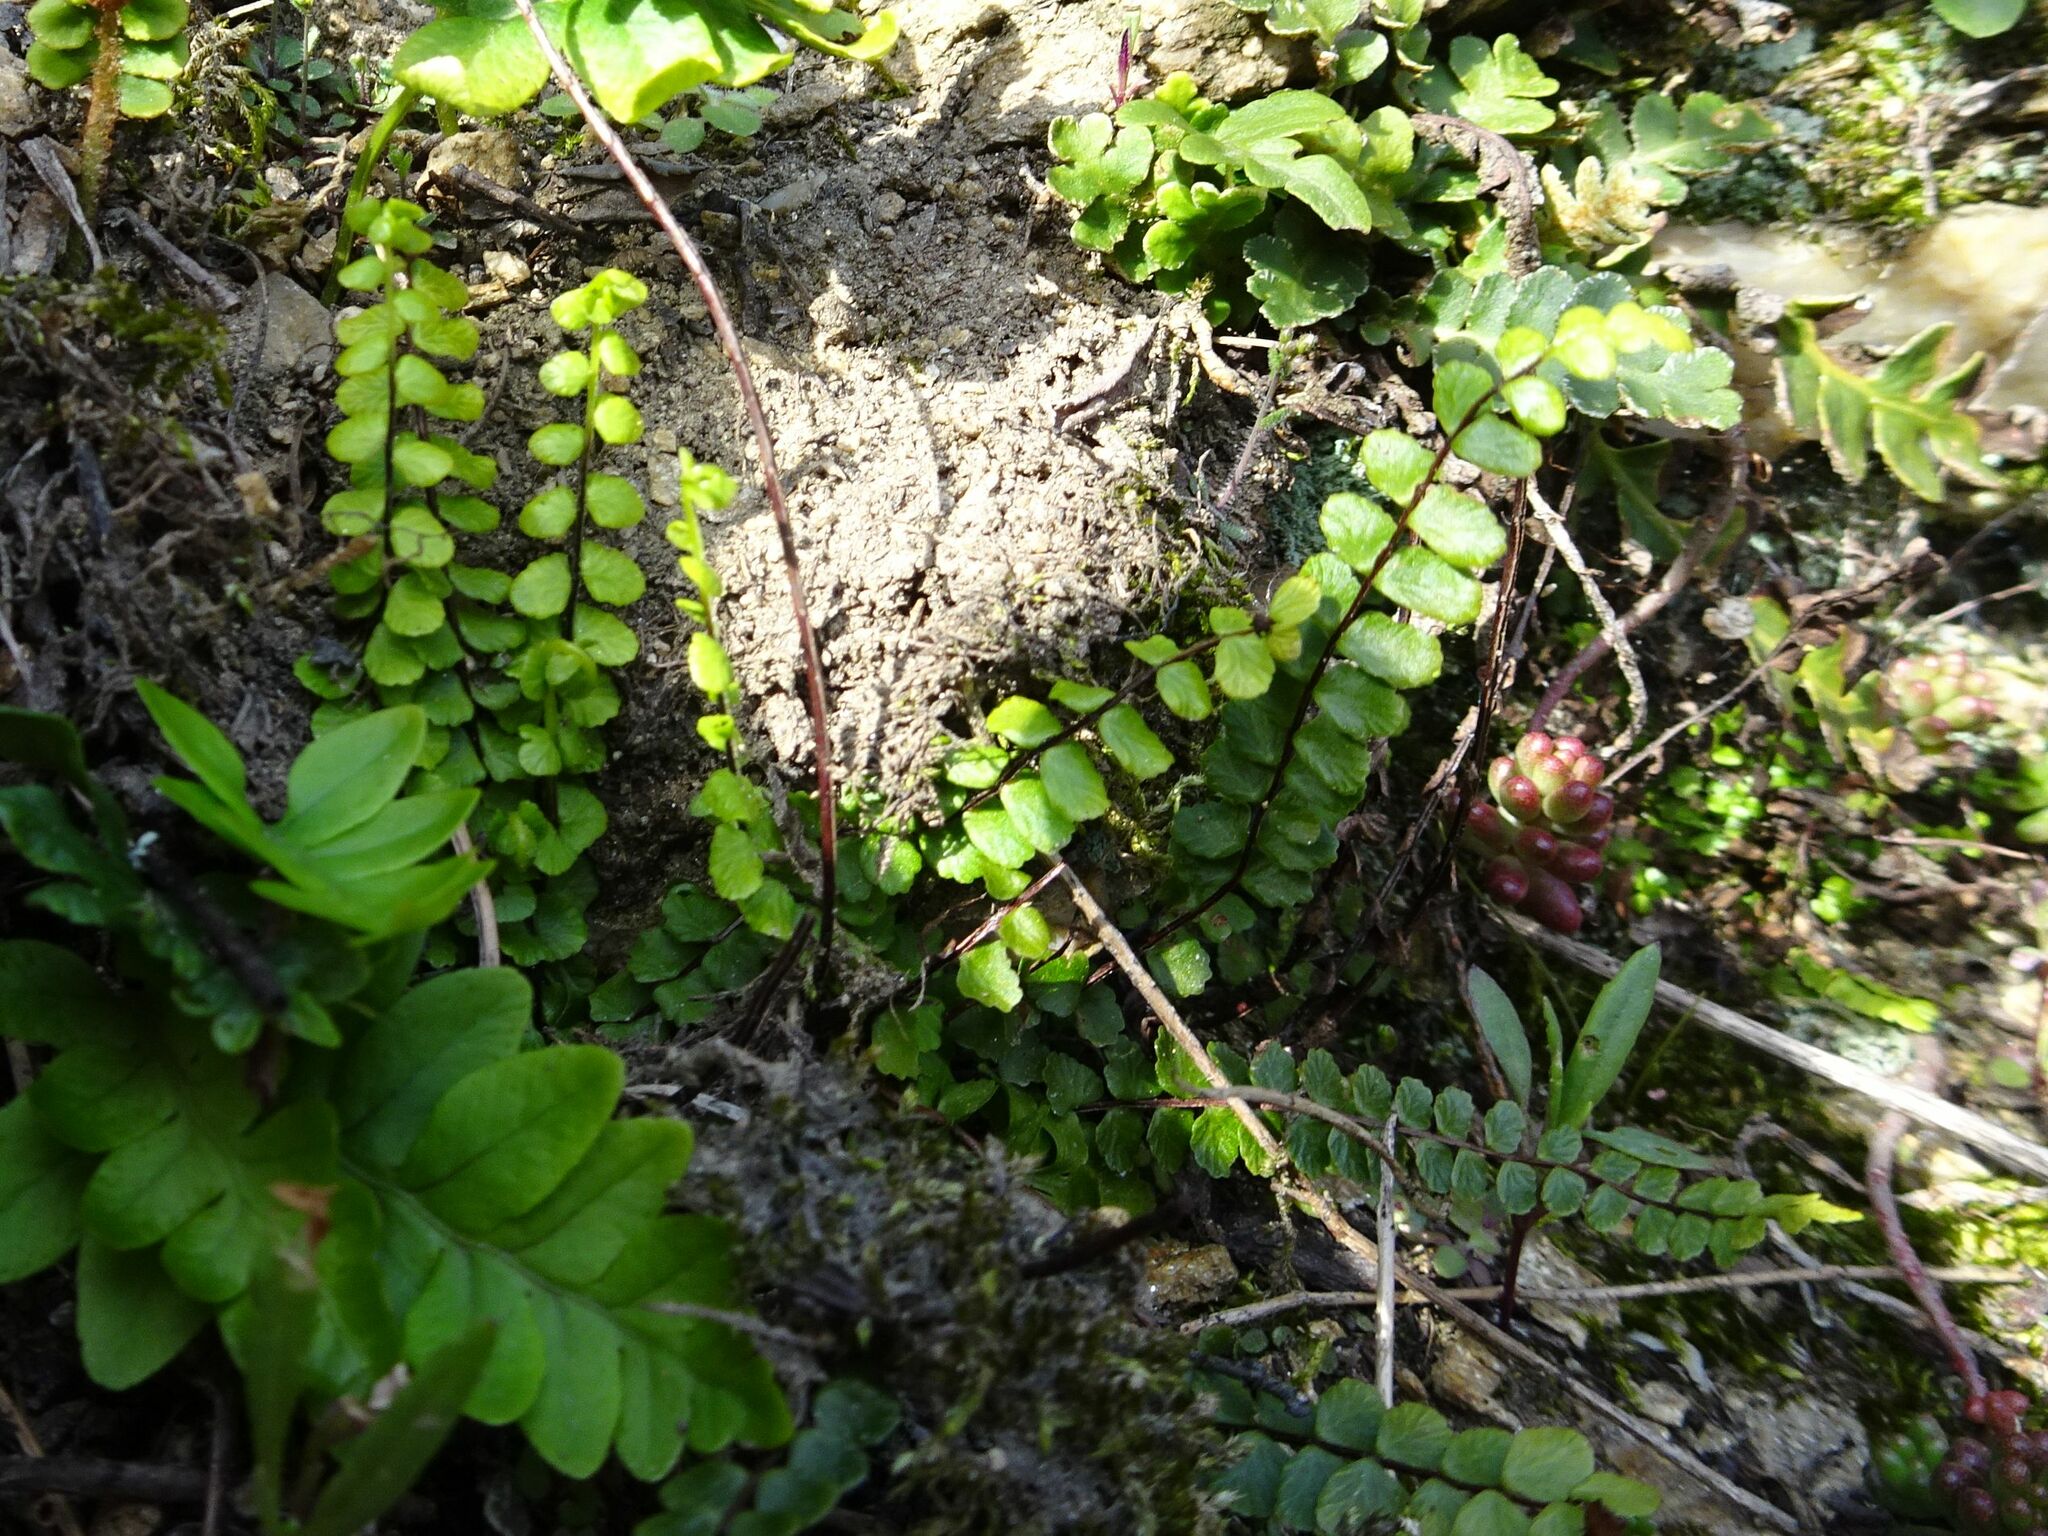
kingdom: Plantae
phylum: Tracheophyta
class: Polypodiopsida
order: Polypodiales
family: Aspleniaceae
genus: Asplenium
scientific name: Asplenium trichomanes
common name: Maidenhair spleenwort
